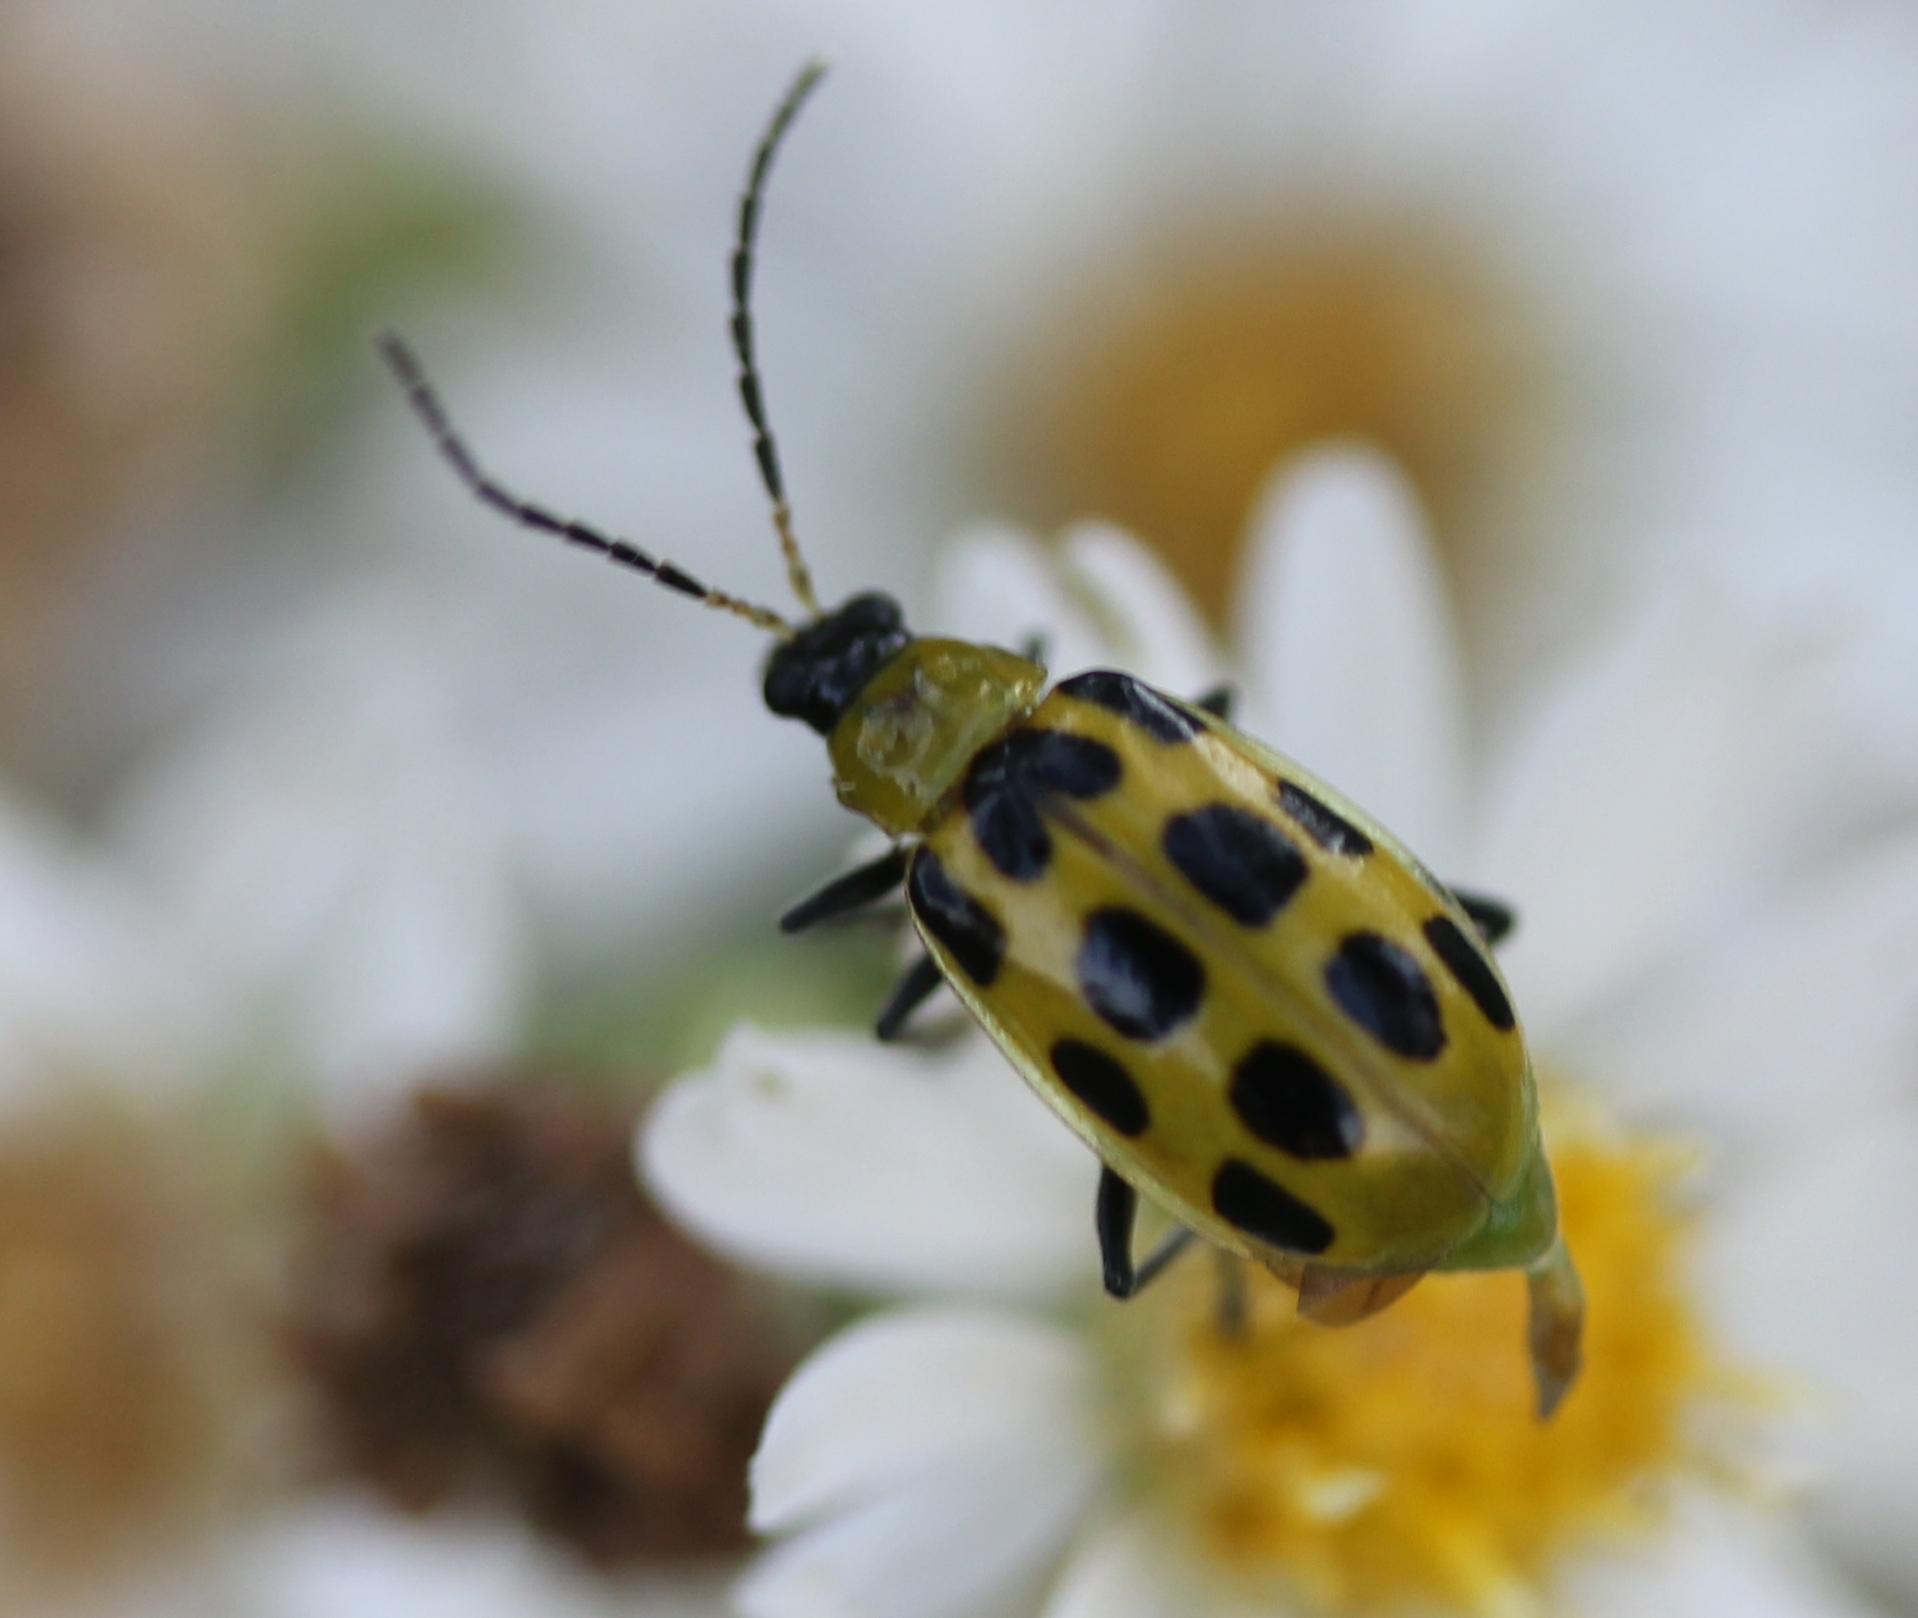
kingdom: Animalia
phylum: Arthropoda
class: Insecta
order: Coleoptera
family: Chrysomelidae
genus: Diabrotica
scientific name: Diabrotica undecimpunctata
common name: Spotted cucumber beetle
